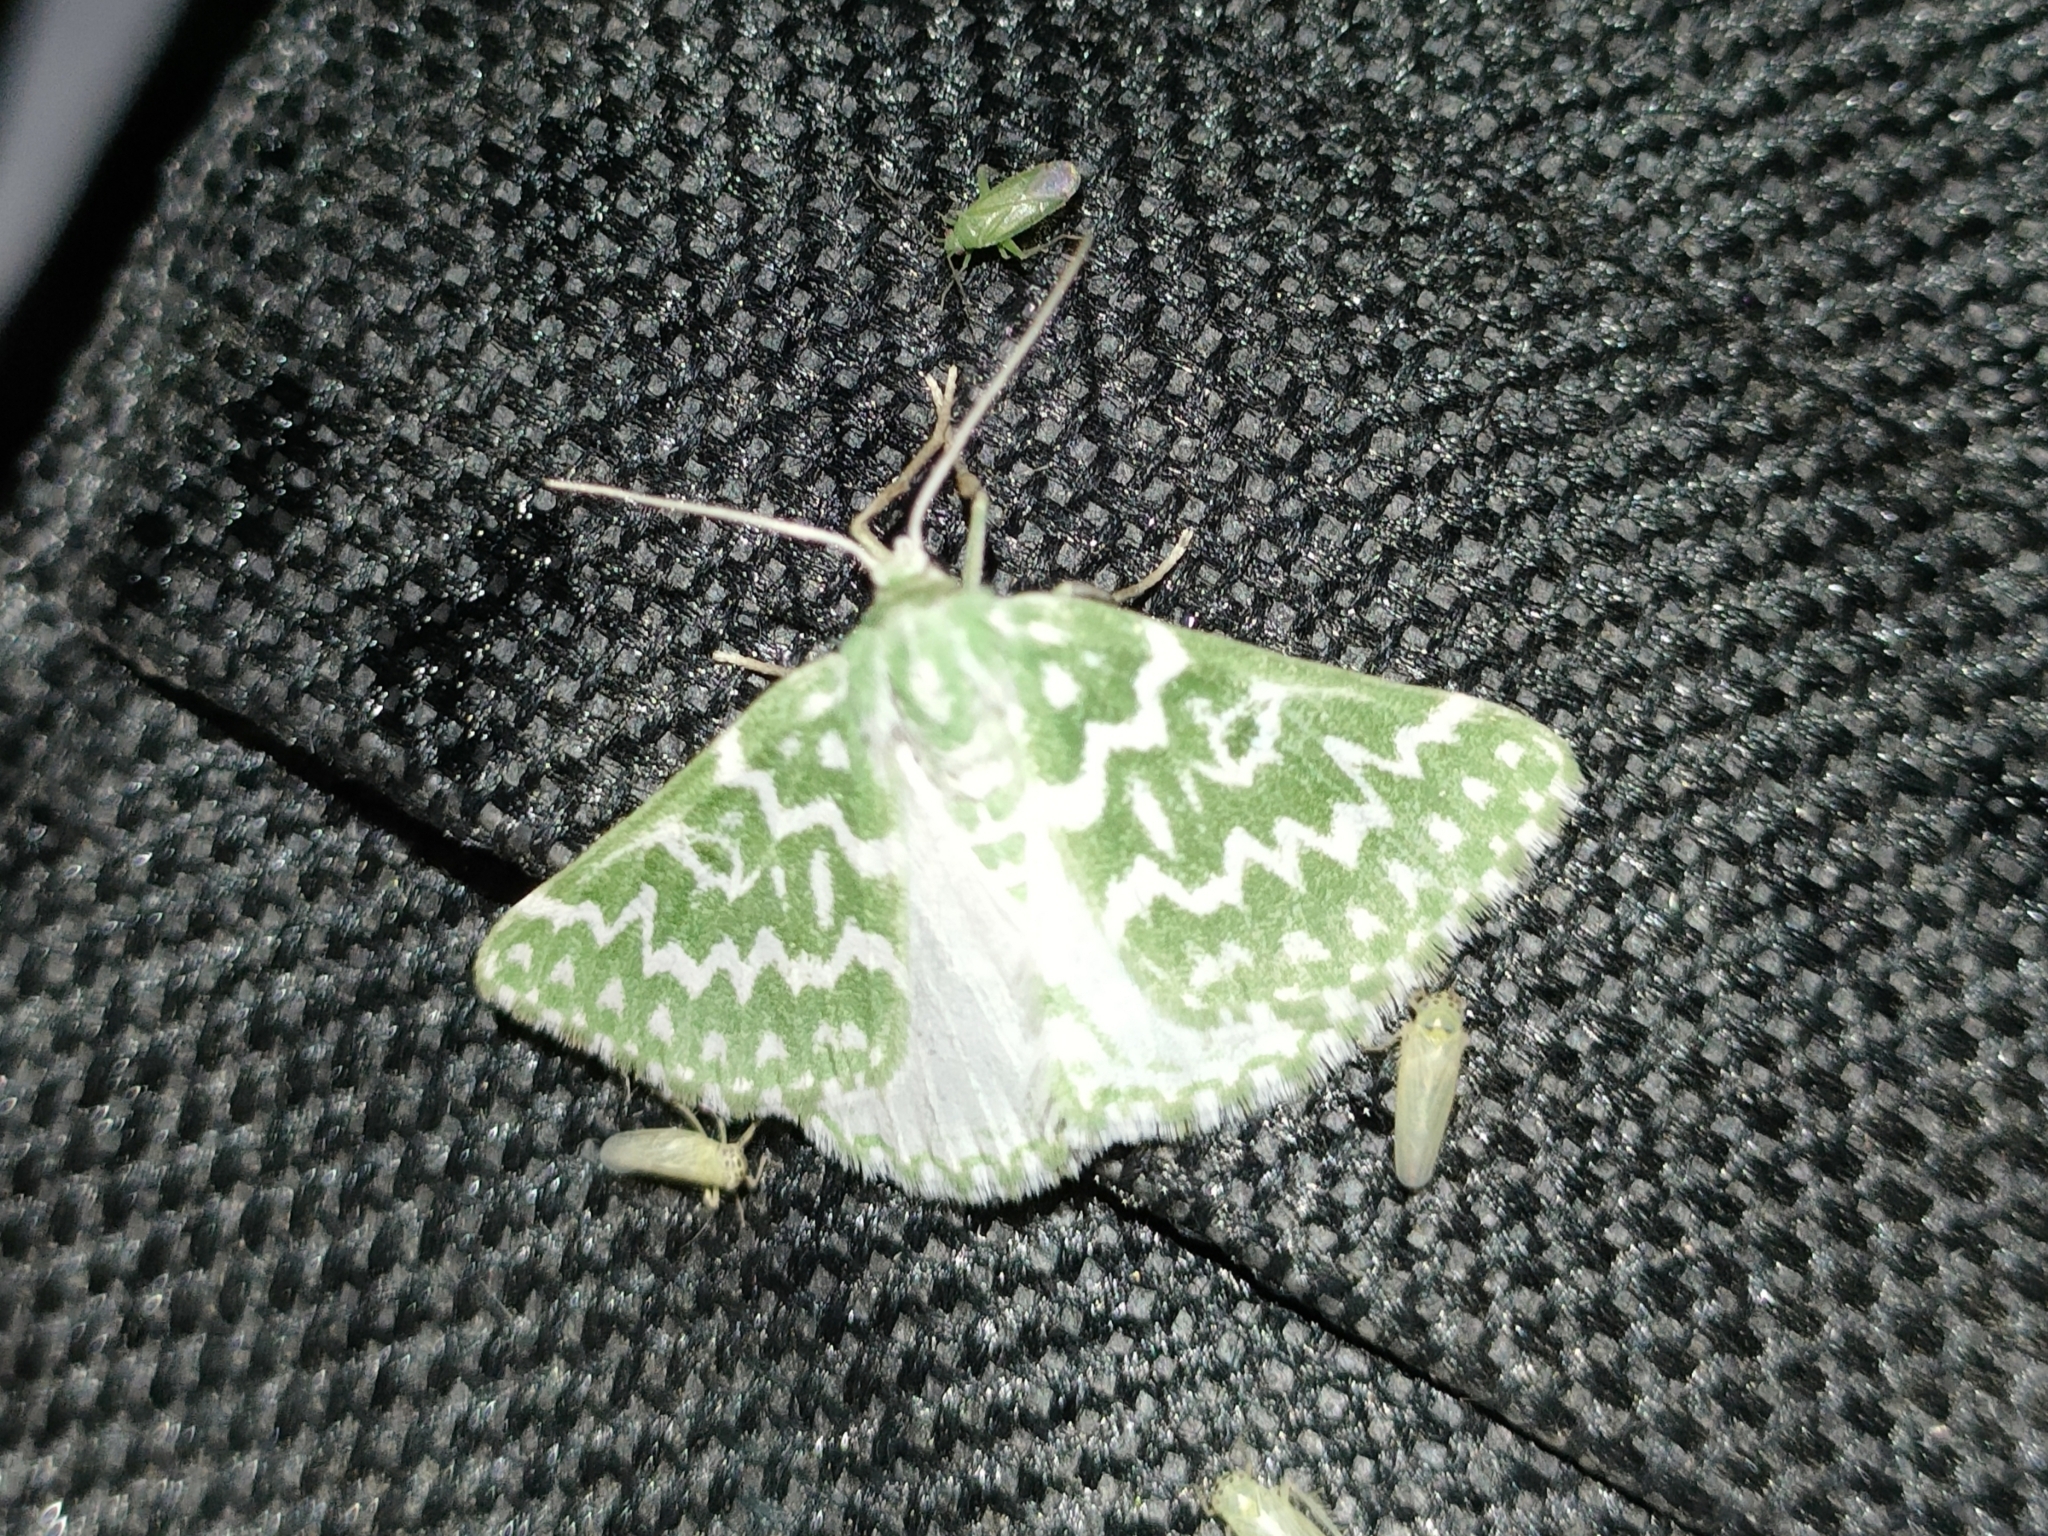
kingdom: Animalia
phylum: Arthropoda
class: Insecta
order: Lepidoptera
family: Geometridae
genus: Thetidia
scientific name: Thetidia plusiaria
